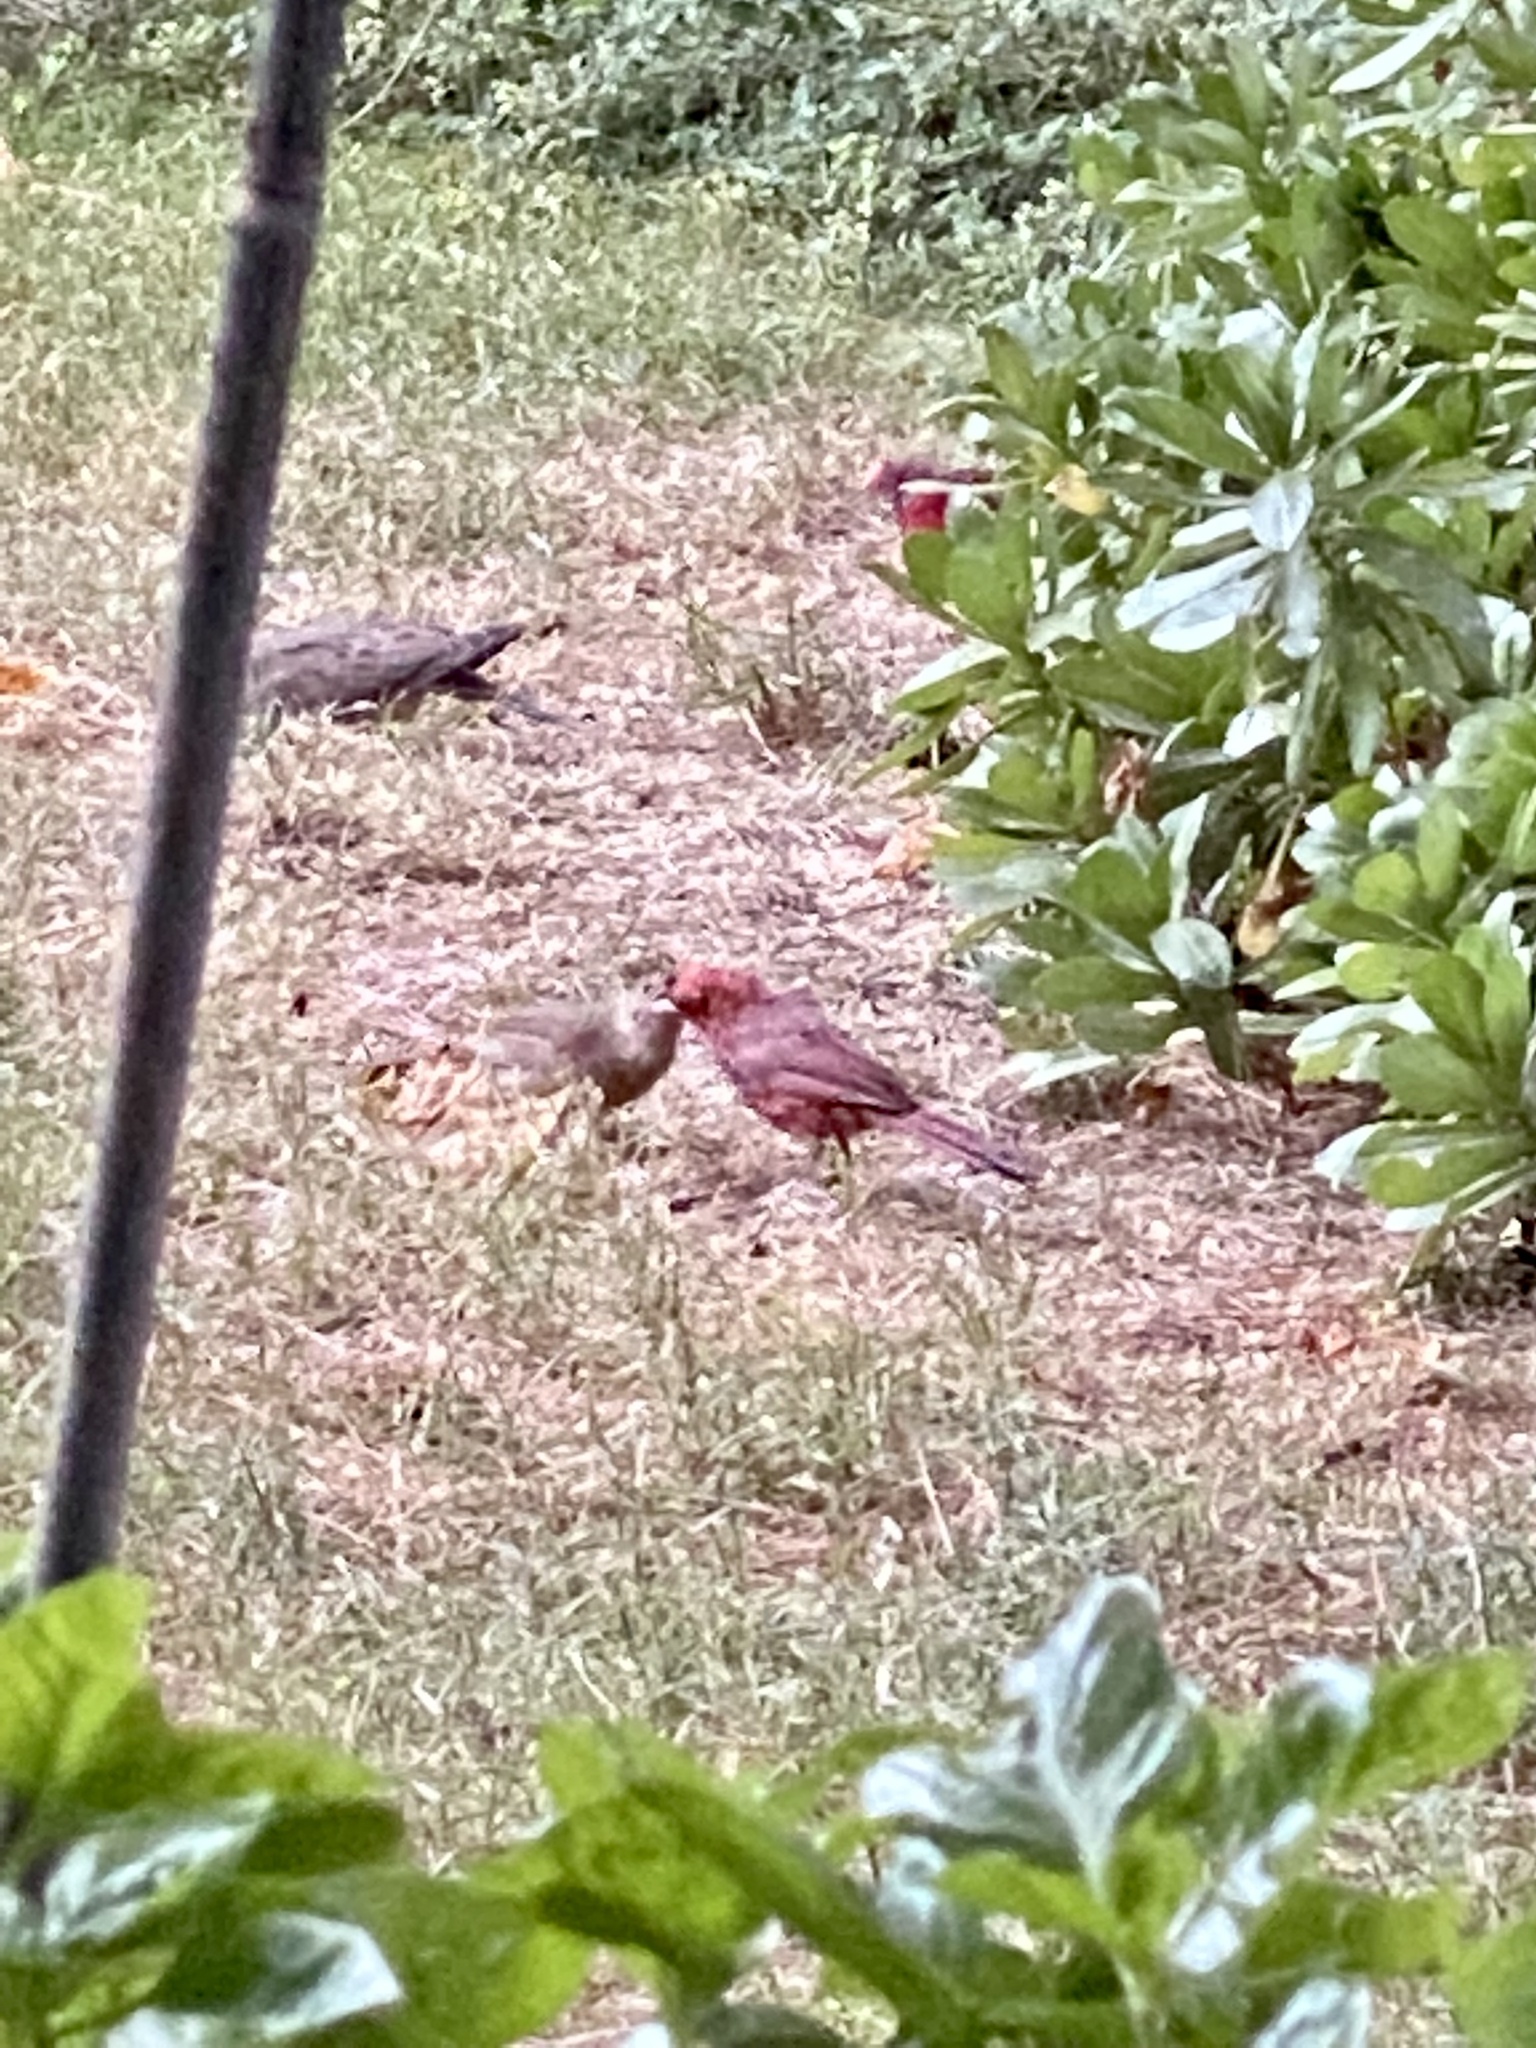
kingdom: Animalia
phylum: Chordata
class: Aves
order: Passeriformes
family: Cardinalidae
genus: Cardinalis
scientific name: Cardinalis cardinalis
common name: Northern cardinal
